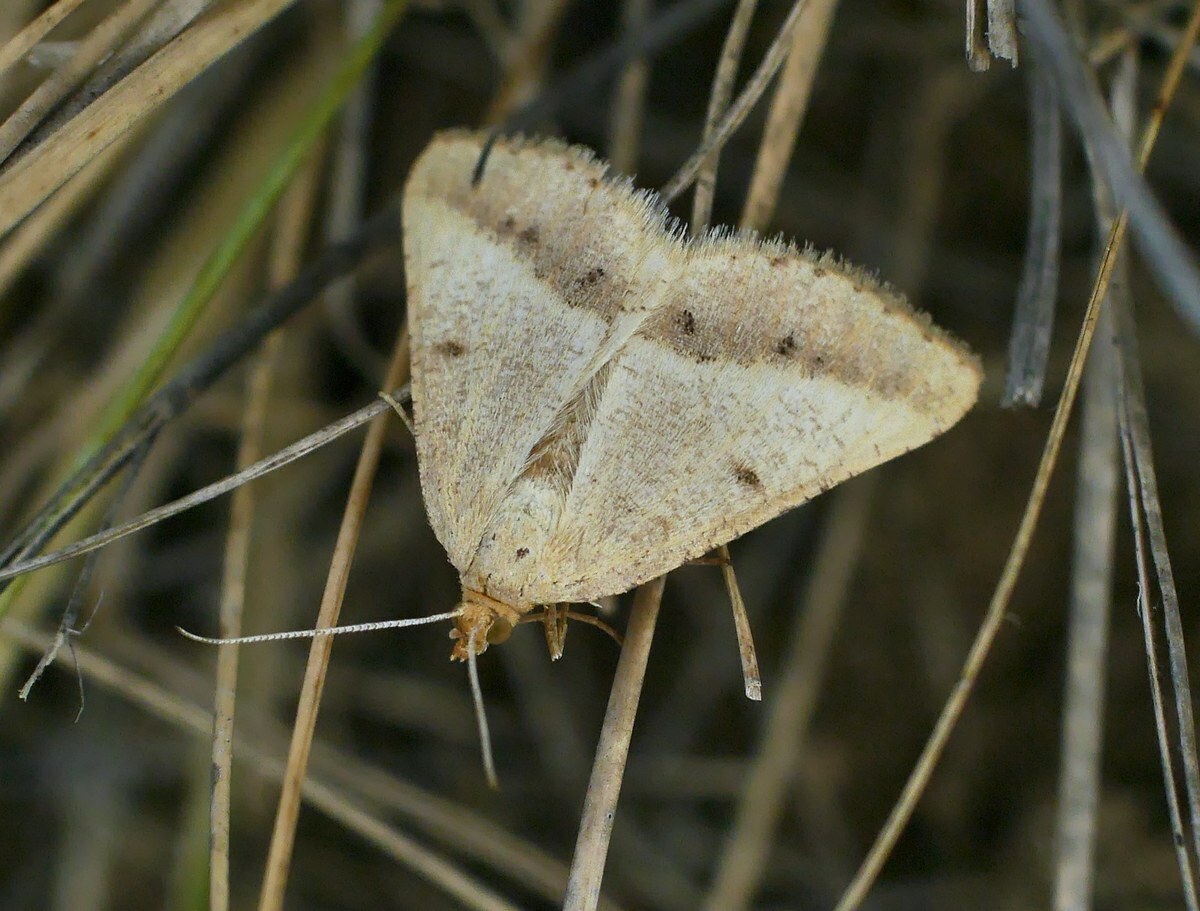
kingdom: Animalia
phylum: Arthropoda
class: Insecta
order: Lepidoptera
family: Geometridae
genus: Tephrina
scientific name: Tephrina arenacearia
